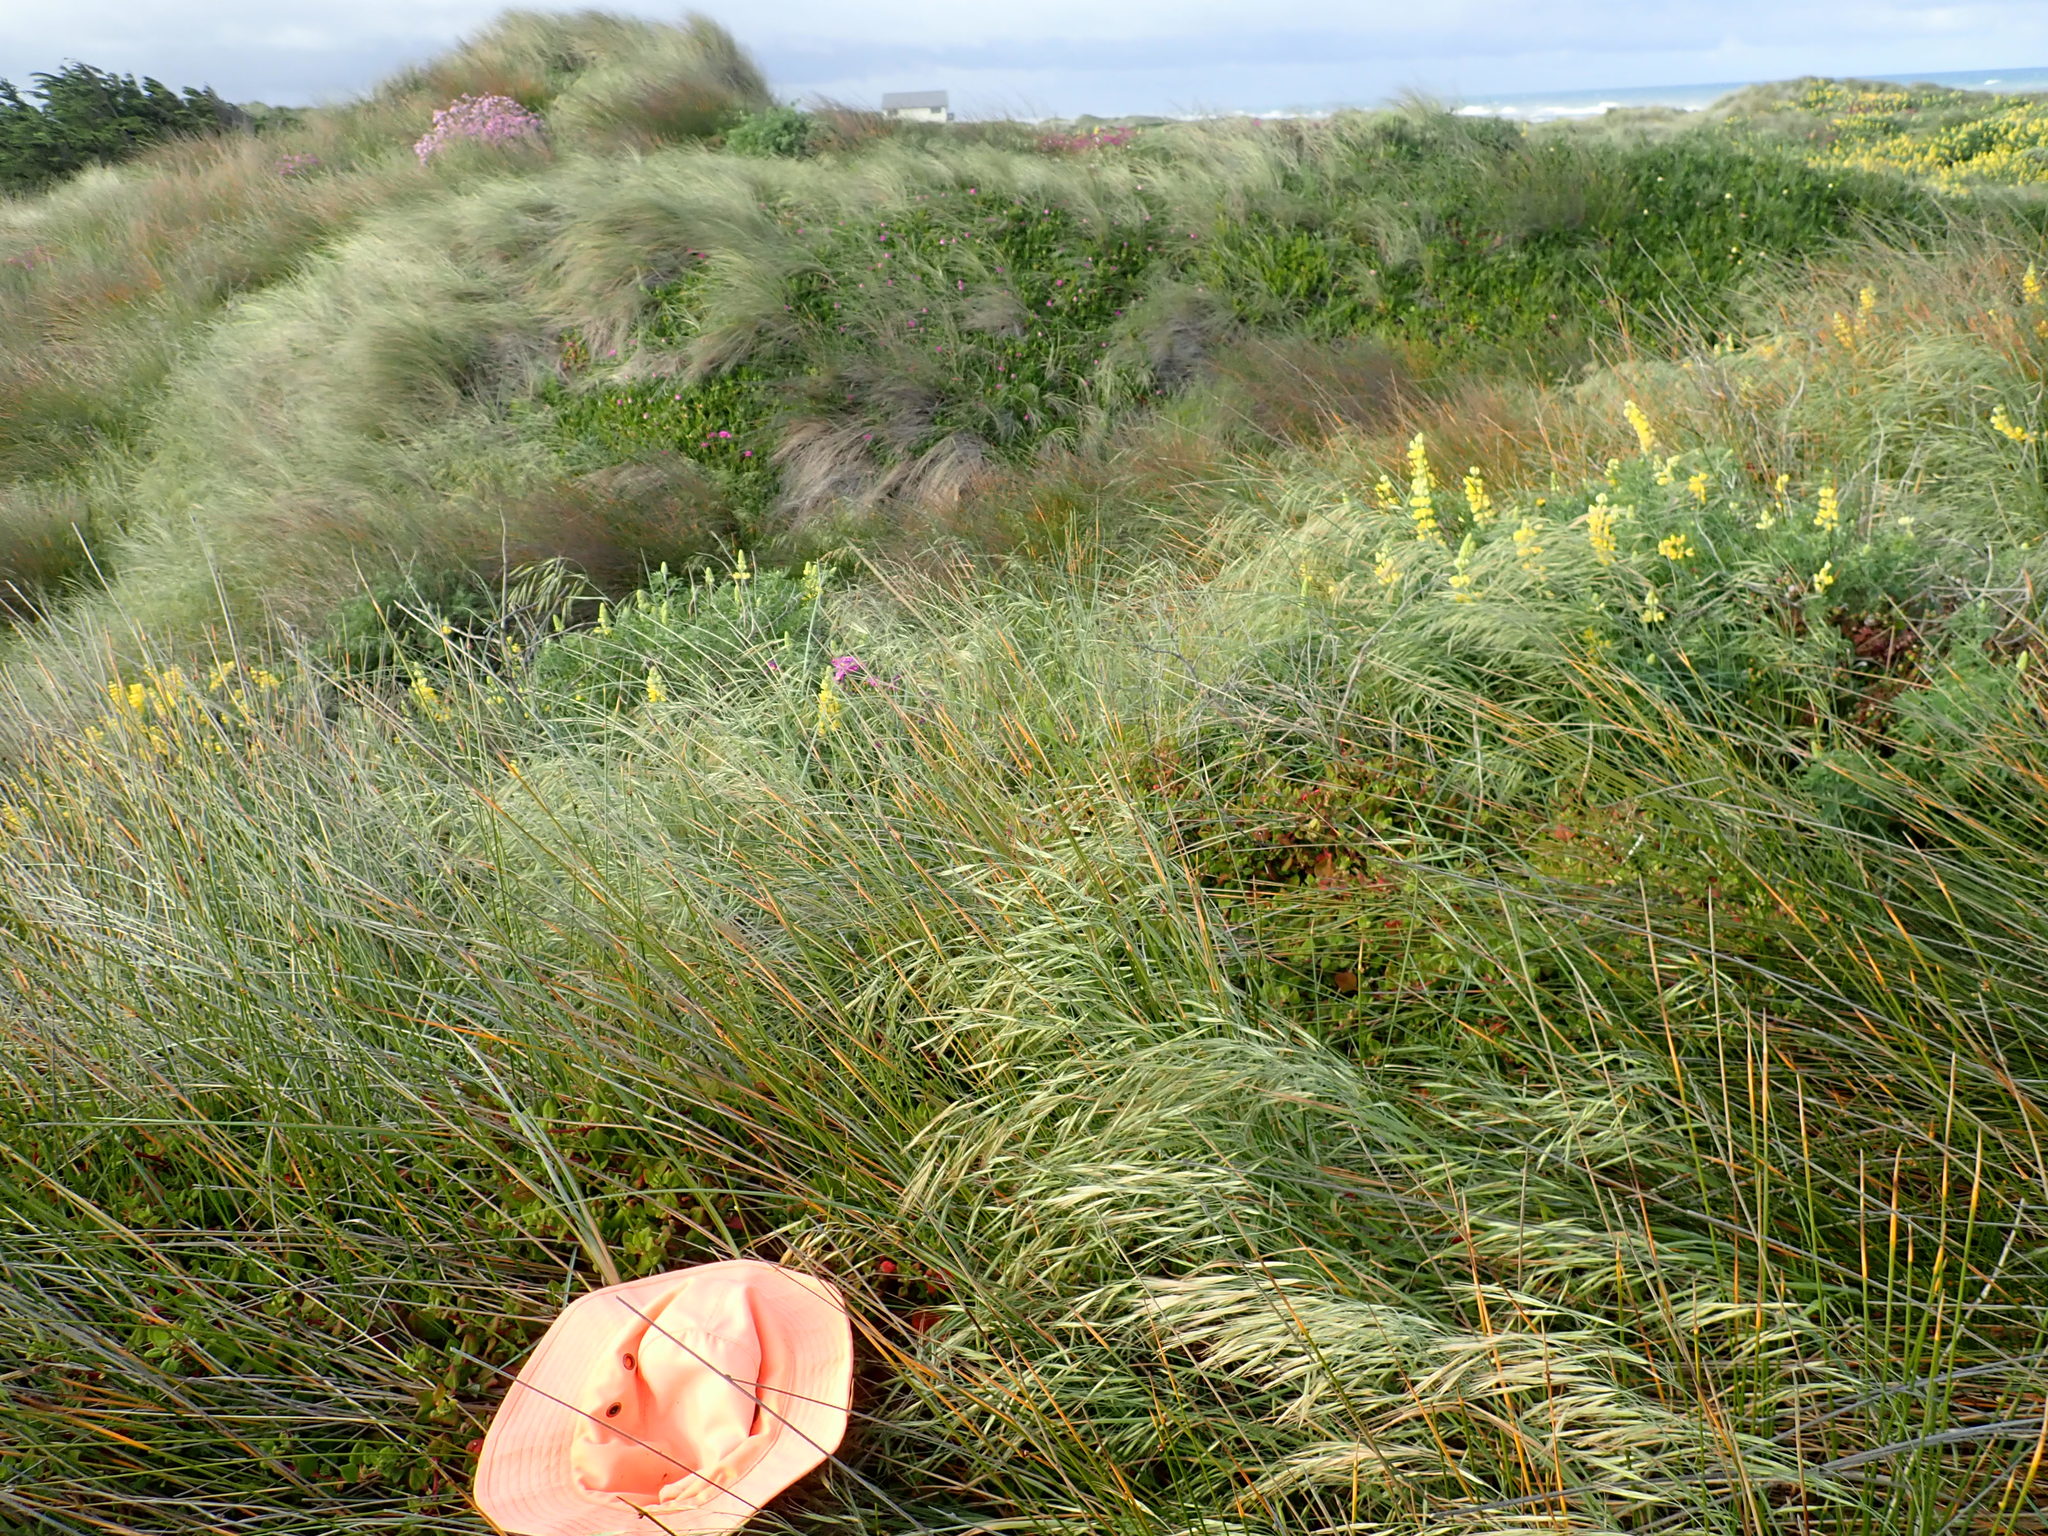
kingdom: Plantae
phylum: Tracheophyta
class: Magnoliopsida
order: Caryophyllales
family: Aizoaceae
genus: Tetragonia
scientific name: Tetragonia implexicoma
